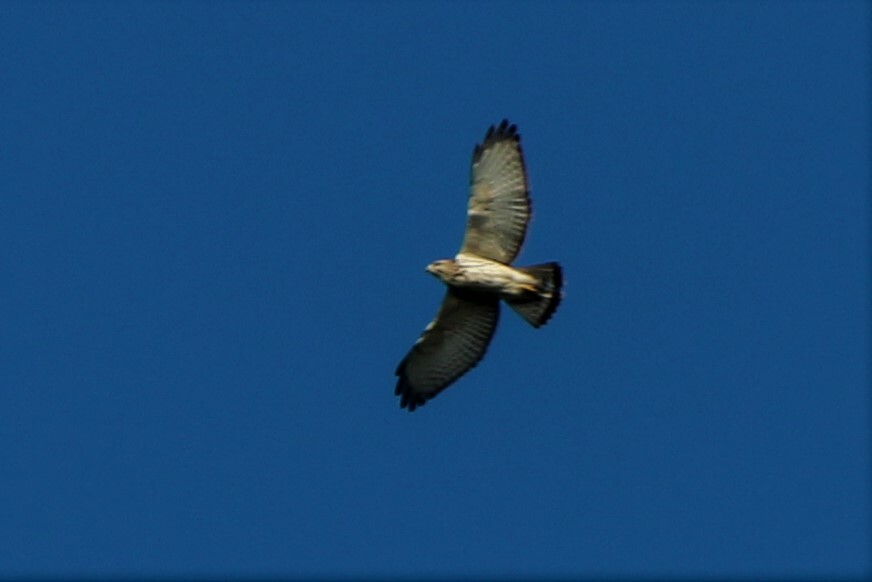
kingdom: Animalia
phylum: Chordata
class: Aves
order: Accipitriformes
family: Accipitridae
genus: Buteo
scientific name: Buteo platypterus
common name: Broad-winged hawk
